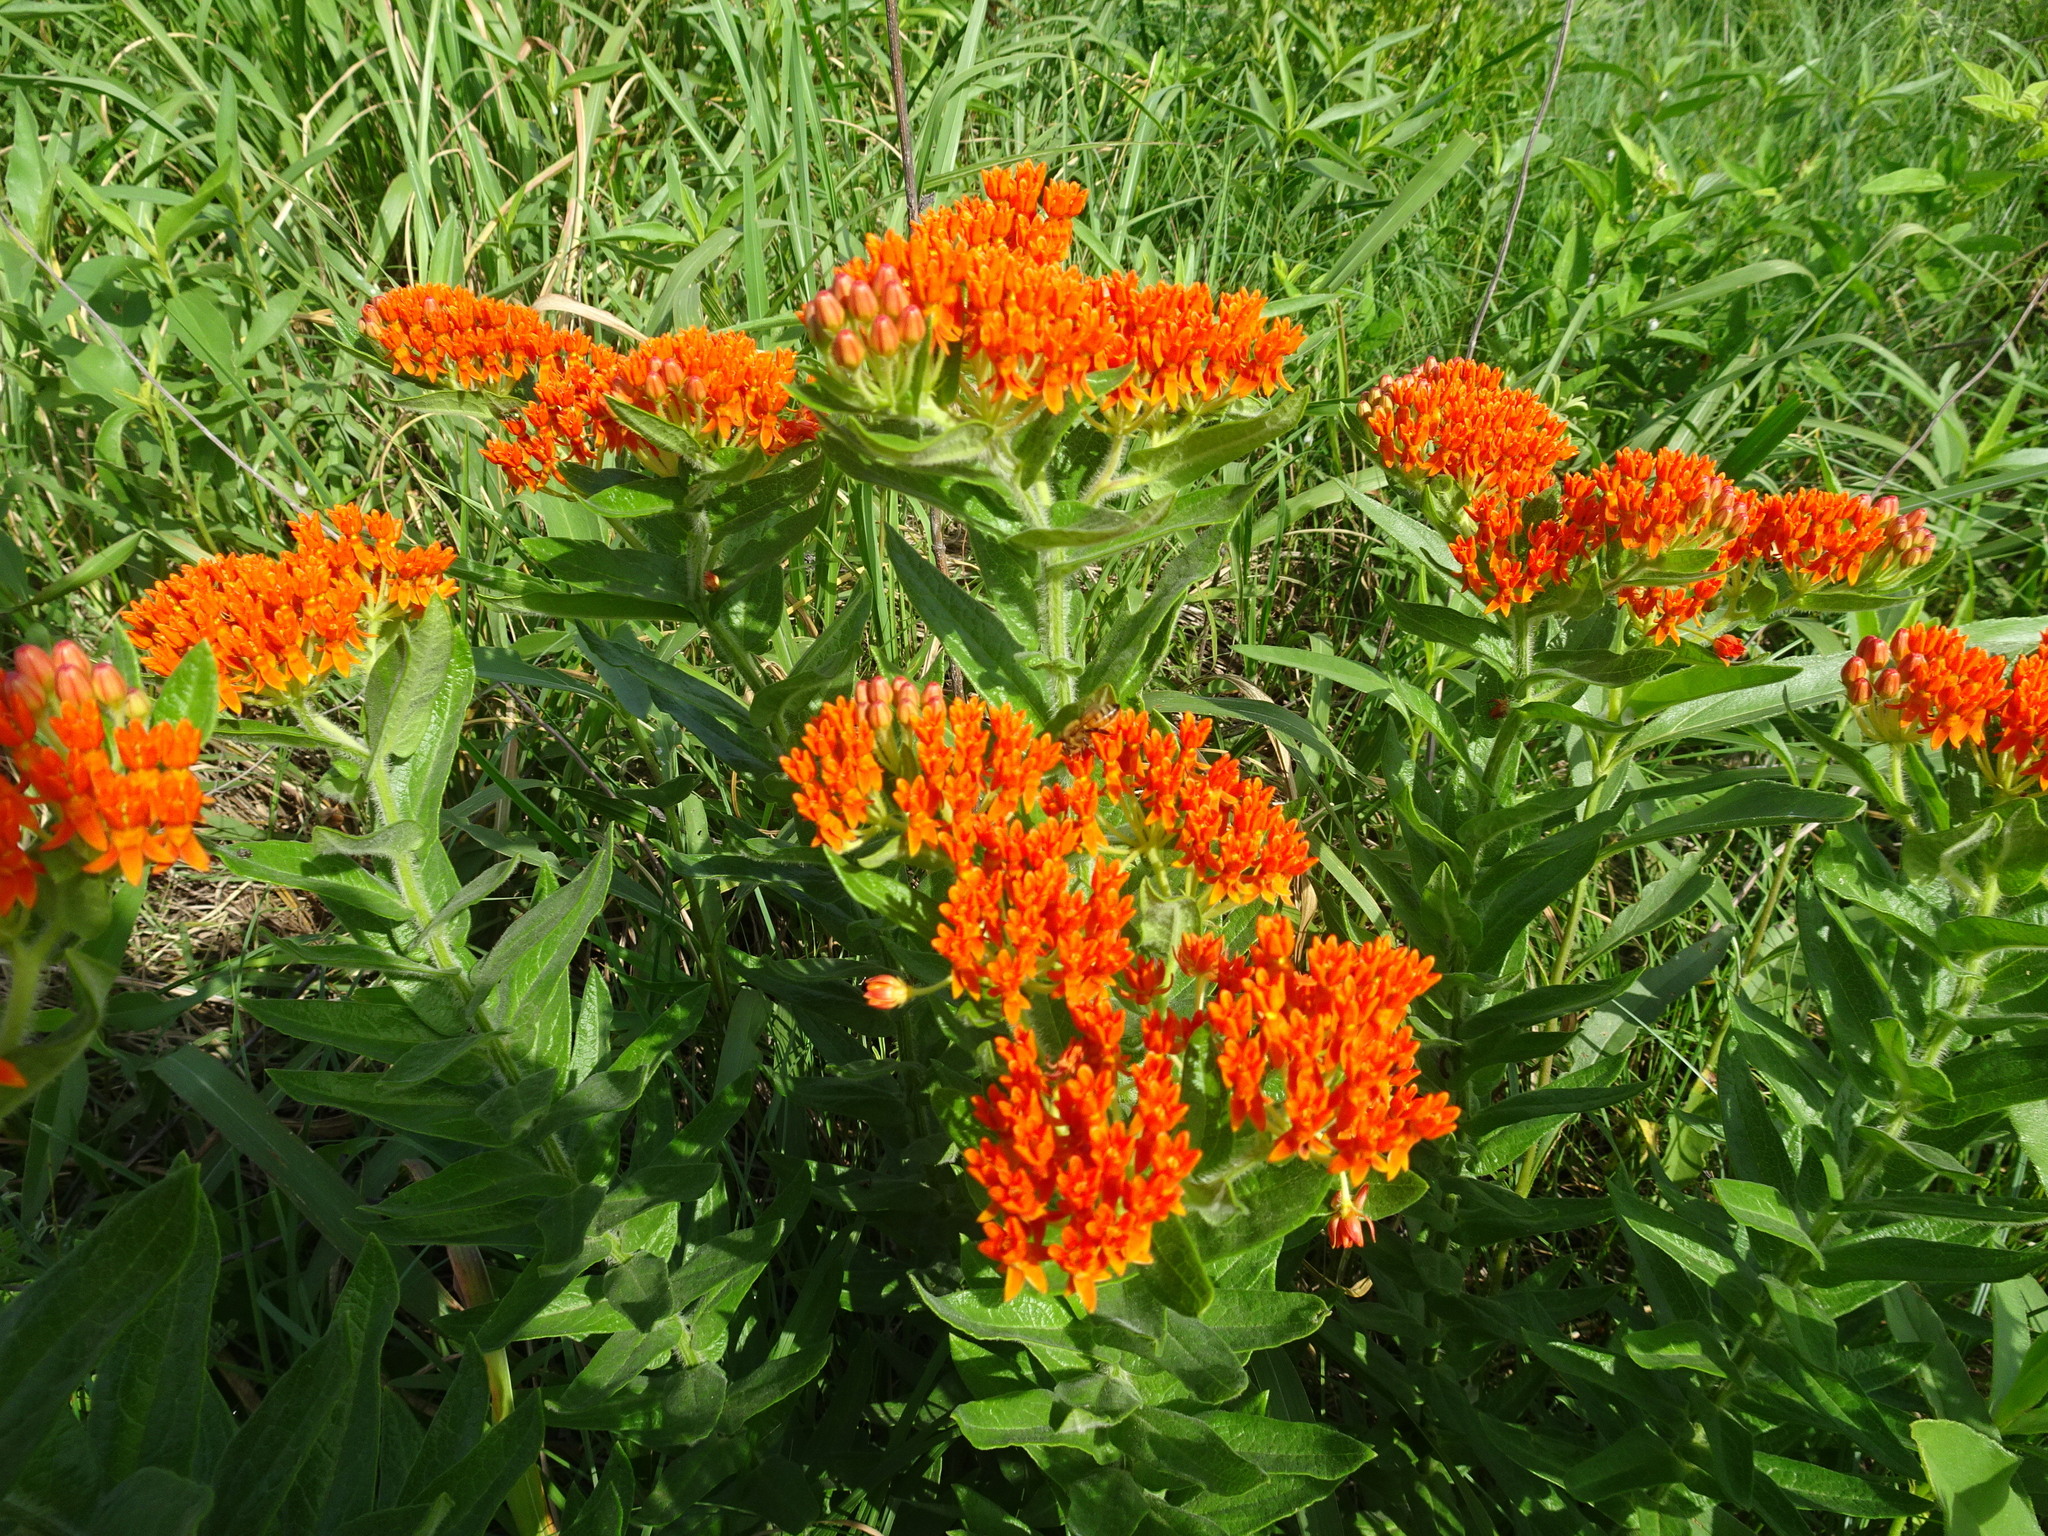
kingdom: Plantae
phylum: Tracheophyta
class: Magnoliopsida
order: Gentianales
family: Apocynaceae
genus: Asclepias
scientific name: Asclepias tuberosa
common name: Butterfly milkweed
